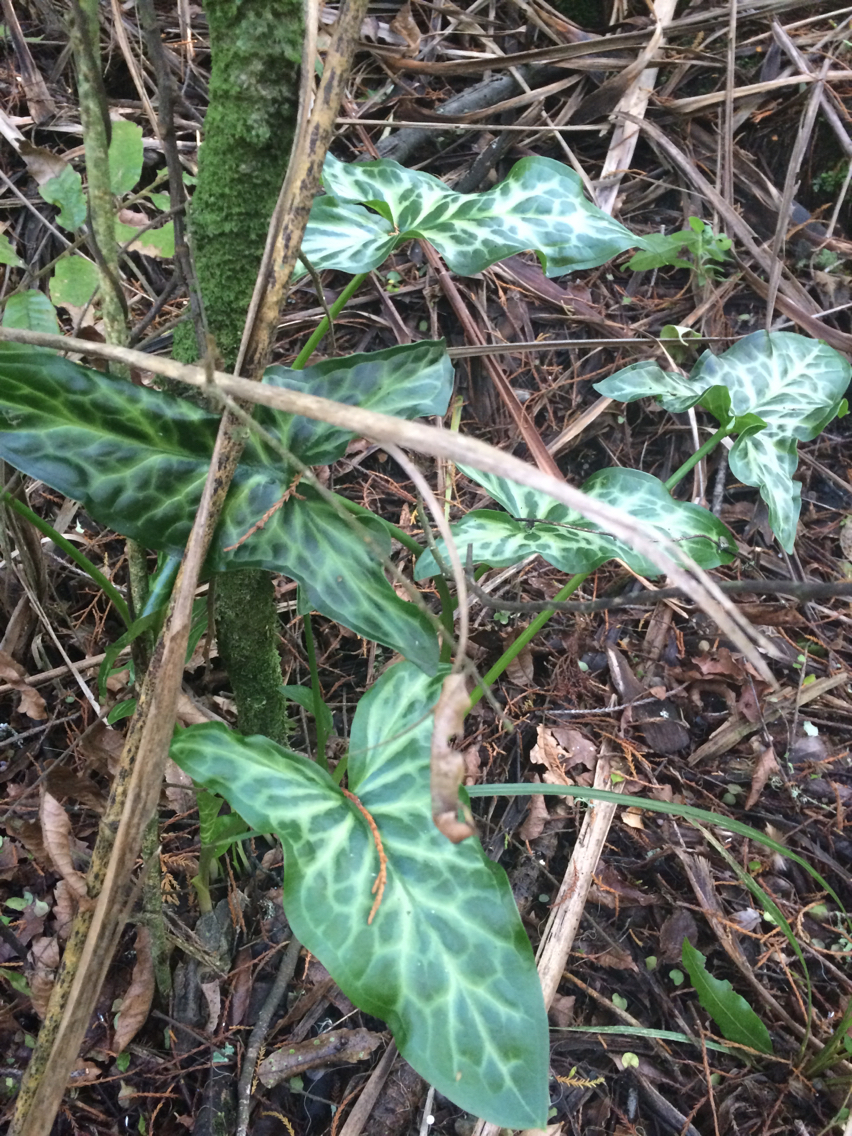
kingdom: Plantae
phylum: Tracheophyta
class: Liliopsida
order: Alismatales
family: Araceae
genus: Arum
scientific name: Arum italicum
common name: Italian lords-and-ladies
